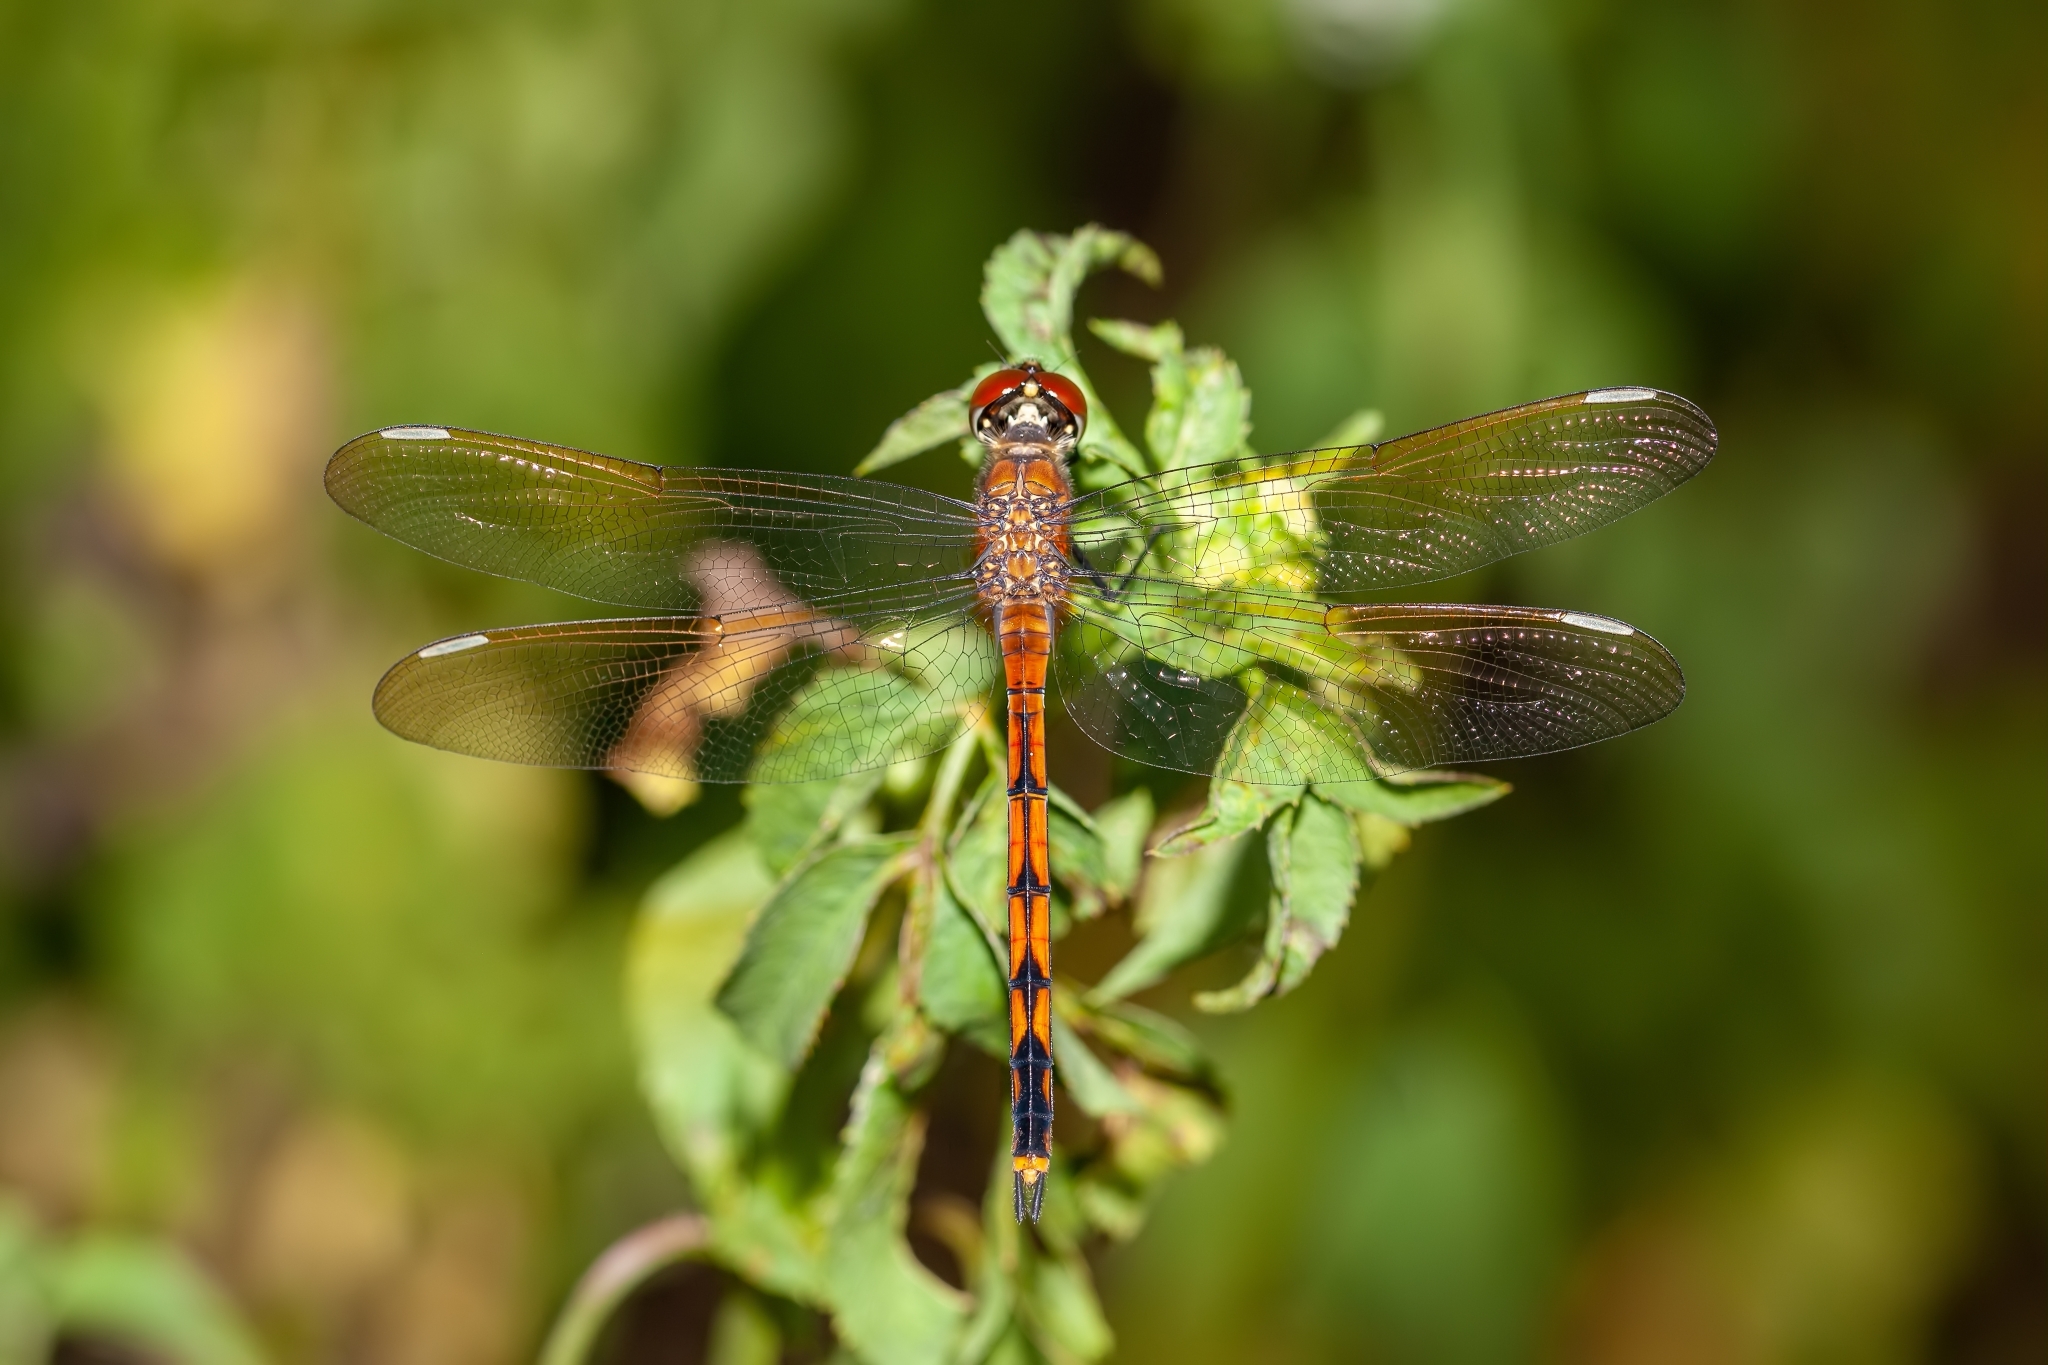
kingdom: Animalia
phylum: Arthropoda
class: Insecta
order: Odonata
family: Libellulidae
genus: Brachymesia
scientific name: Brachymesia gravida
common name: Four-spotted pennant
